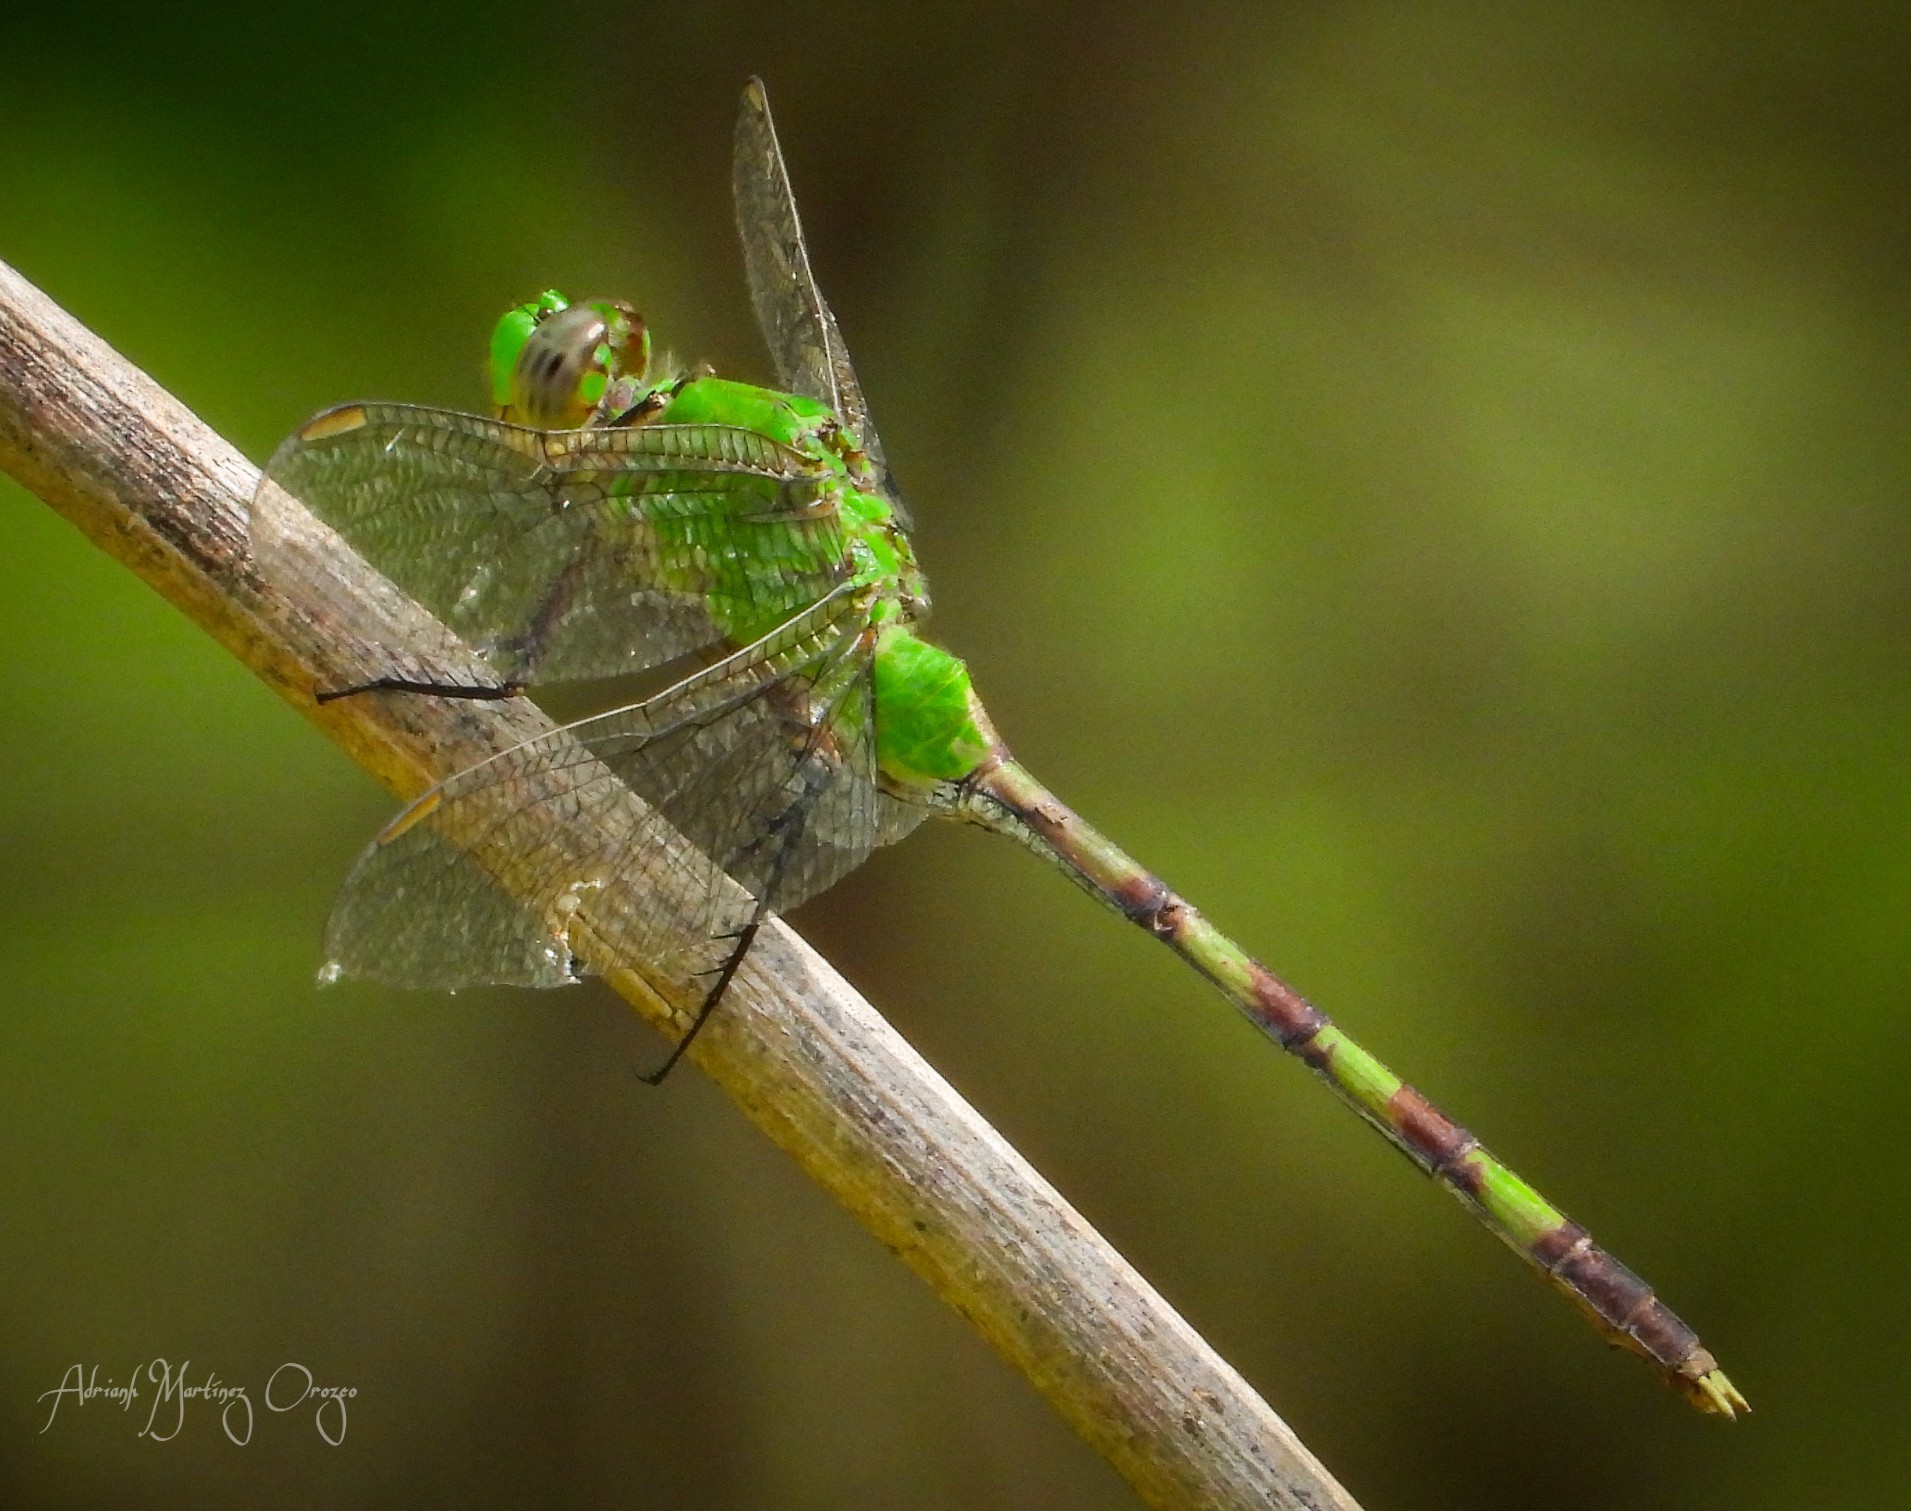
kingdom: Animalia
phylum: Arthropoda
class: Insecta
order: Odonata
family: Libellulidae
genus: Erythemis
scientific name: Erythemis vesiculosa
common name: Great pondhawk
